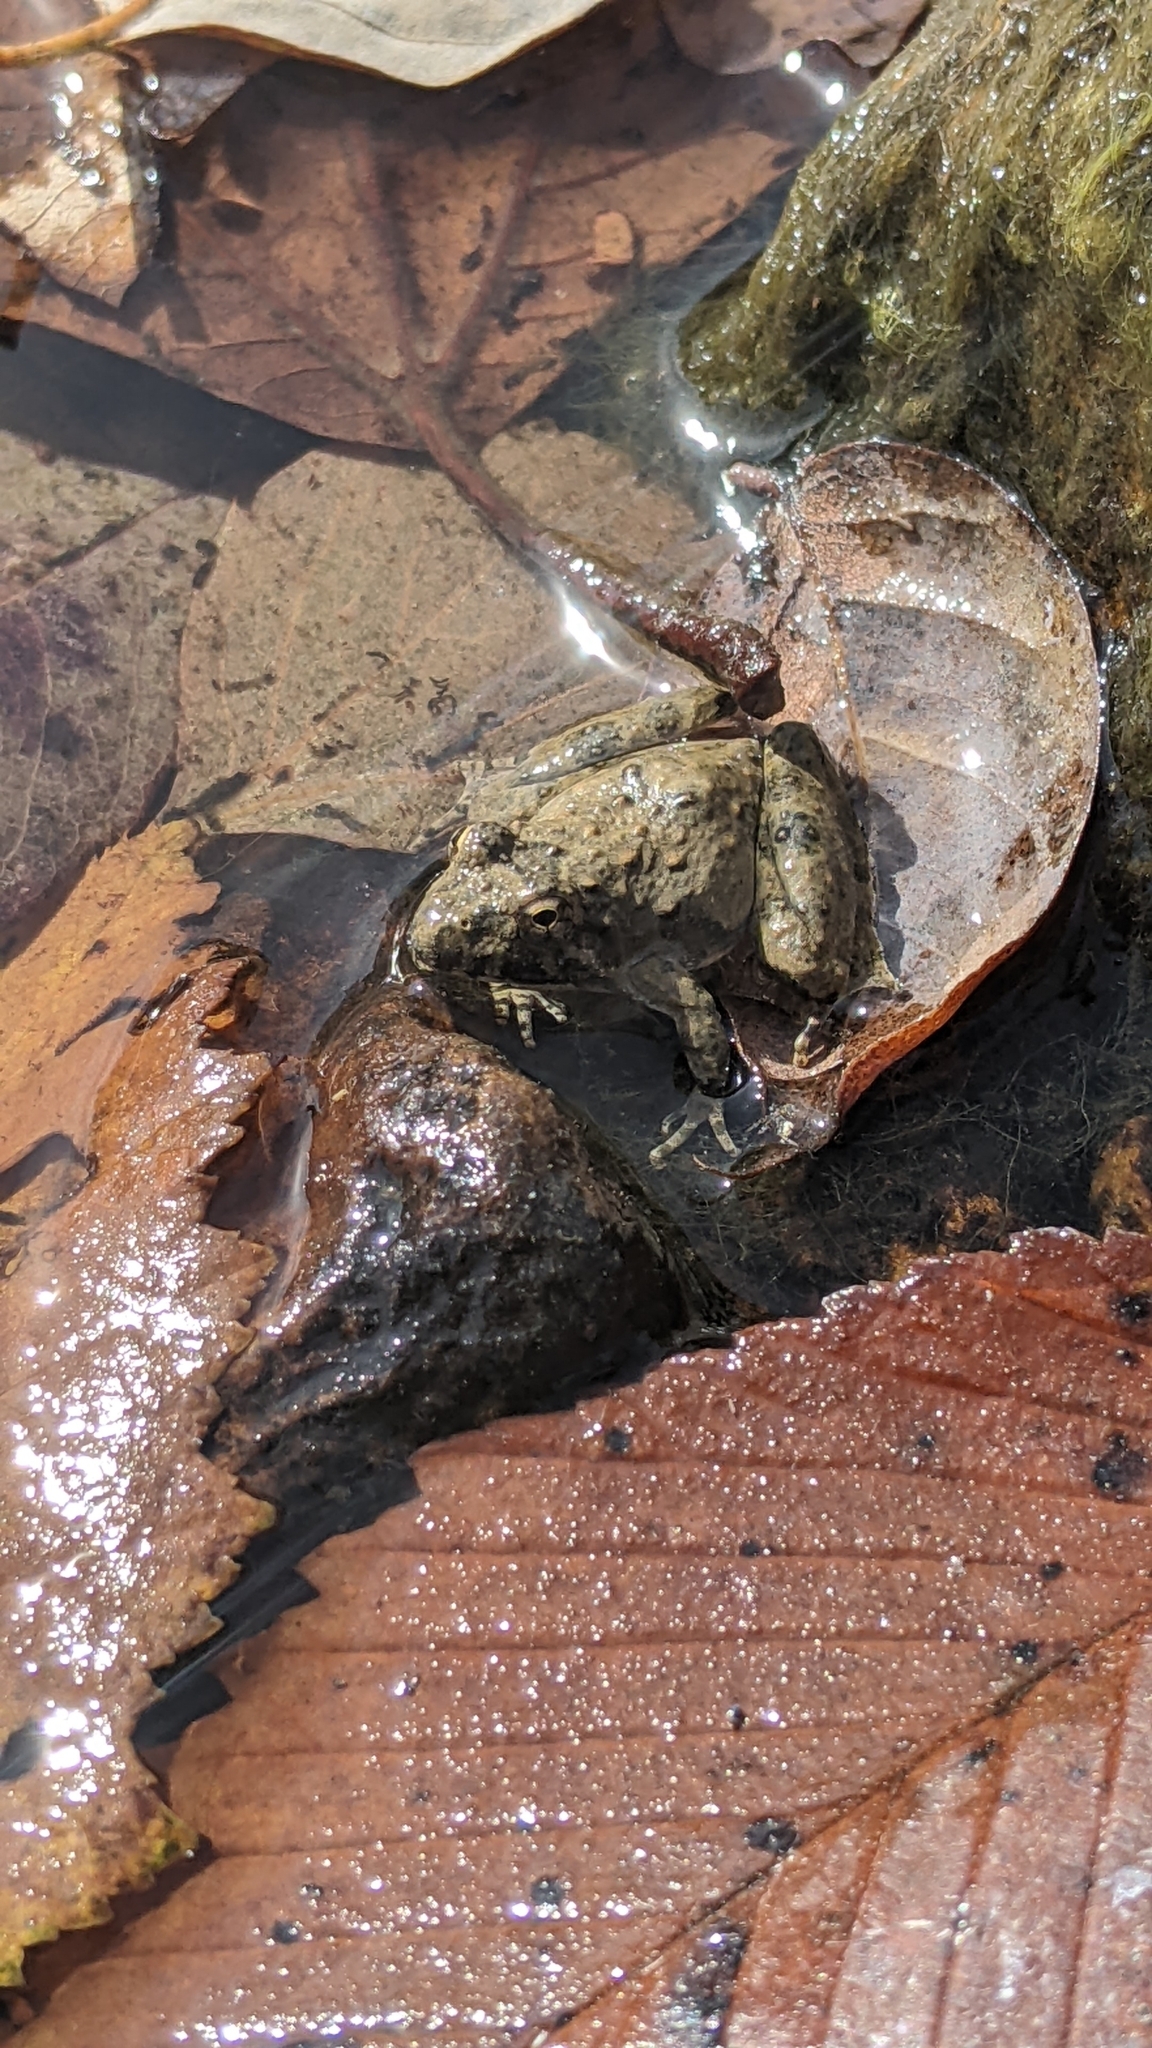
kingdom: Animalia
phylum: Chordata
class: Amphibia
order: Anura
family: Hylidae
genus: Acris
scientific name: Acris blanchardi
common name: Blanchard's cricket frog
